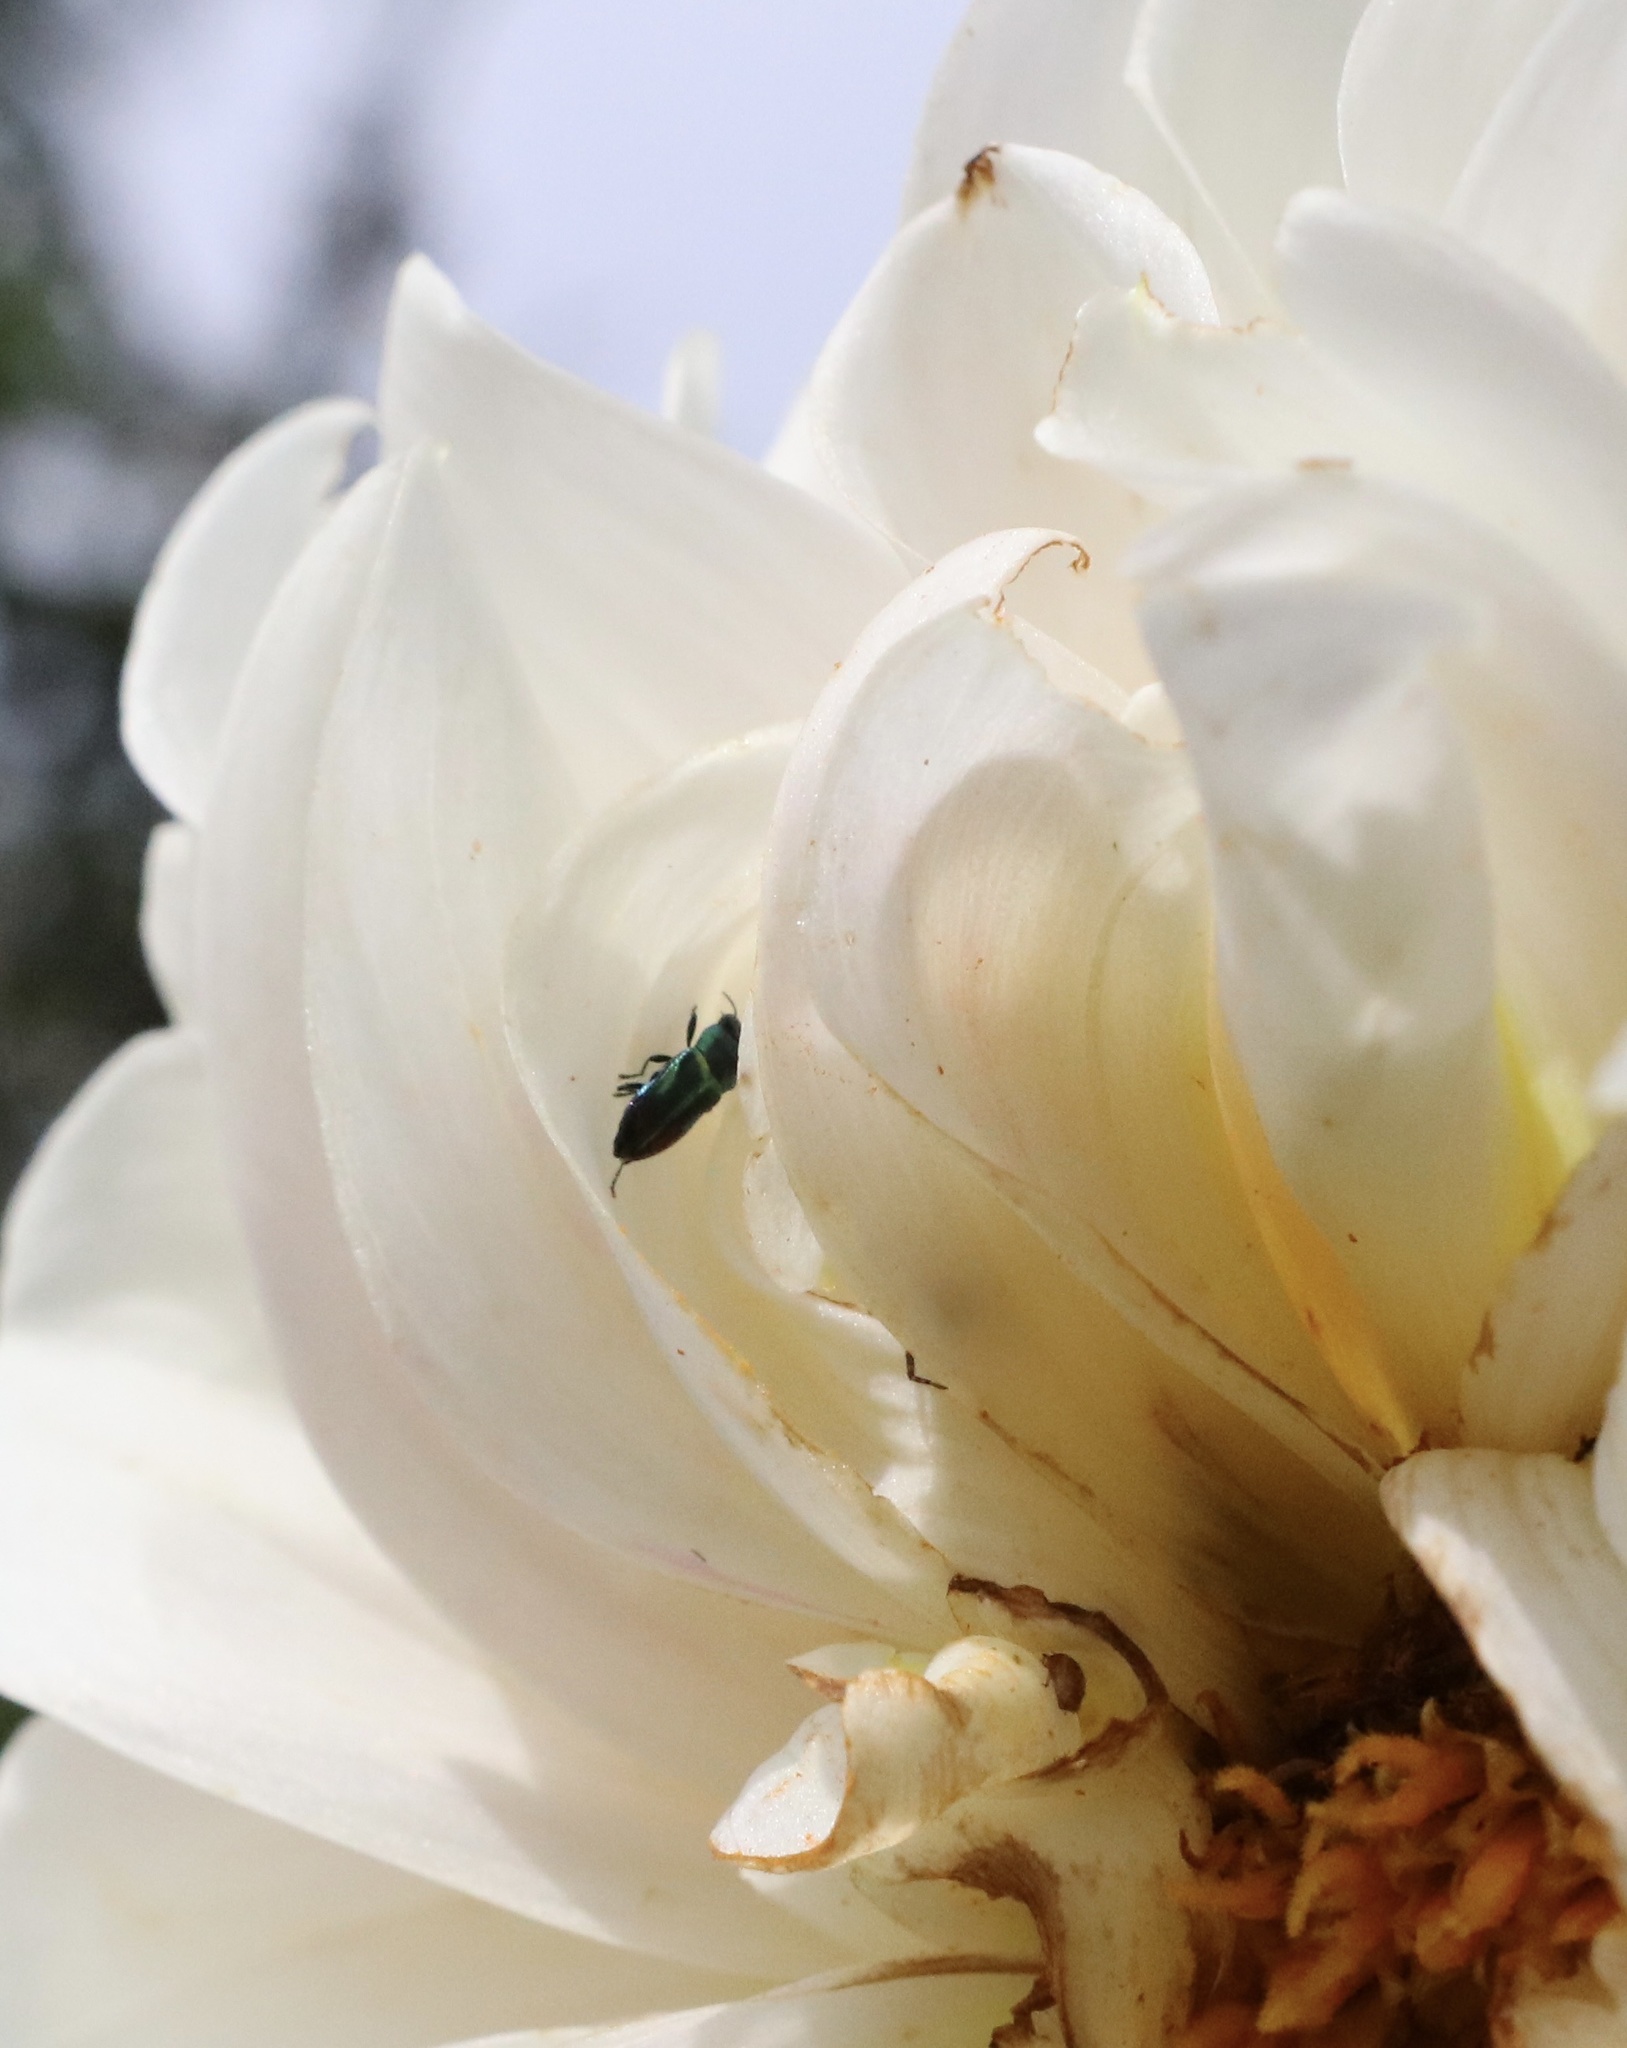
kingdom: Animalia
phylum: Arthropoda
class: Insecta
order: Coleoptera
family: Buprestidae
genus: Bilyaxia
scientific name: Bilyaxia concinna
